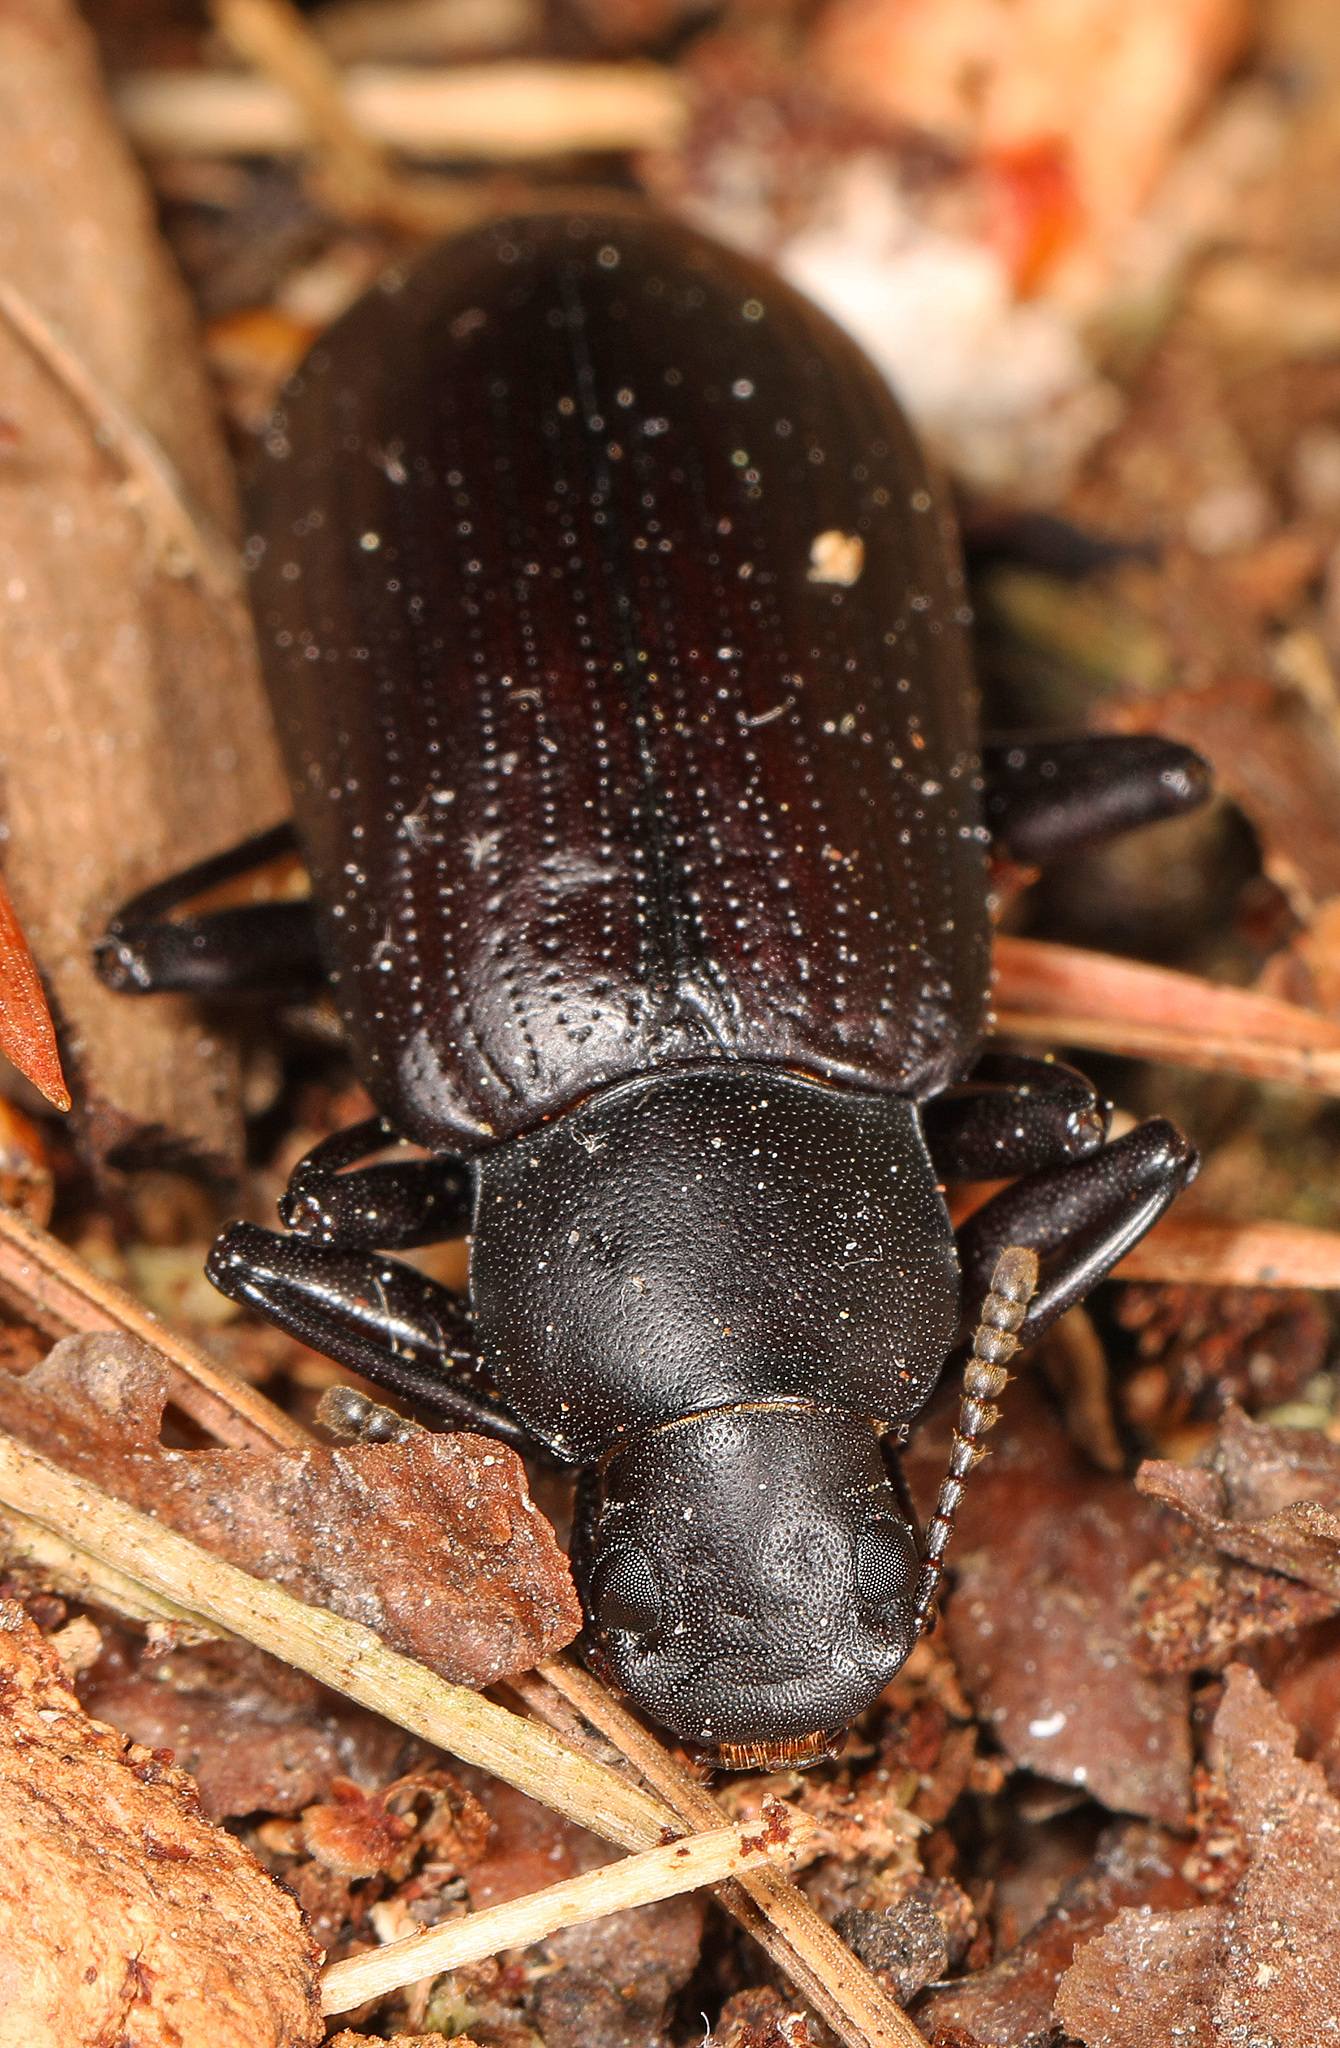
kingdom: Animalia
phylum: Arthropoda
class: Insecta
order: Coleoptera
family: Tenebrionidae
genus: Alobates
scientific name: Alobates
